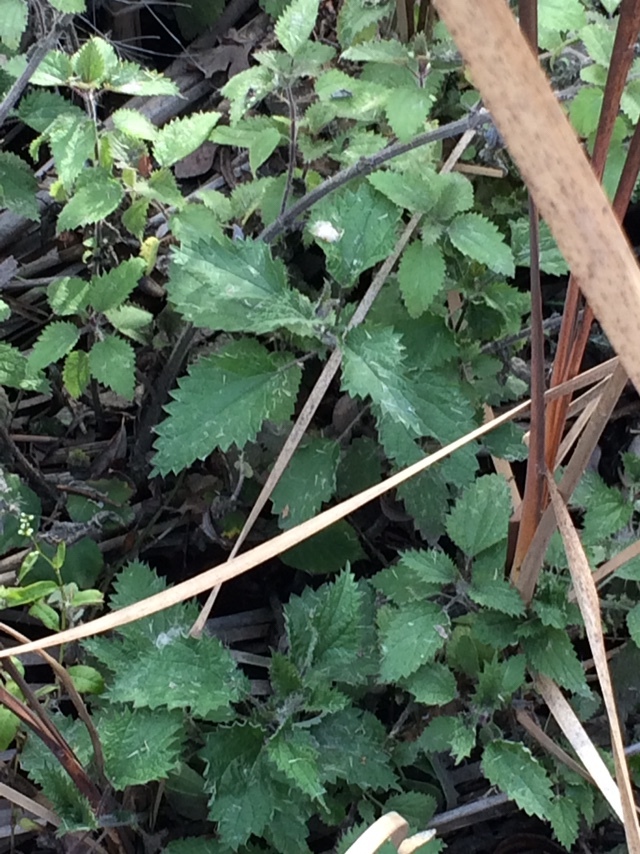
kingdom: Plantae
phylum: Tracheophyta
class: Magnoliopsida
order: Rosales
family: Urticaceae
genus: Urtica
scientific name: Urtica dioica
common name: Common nettle
